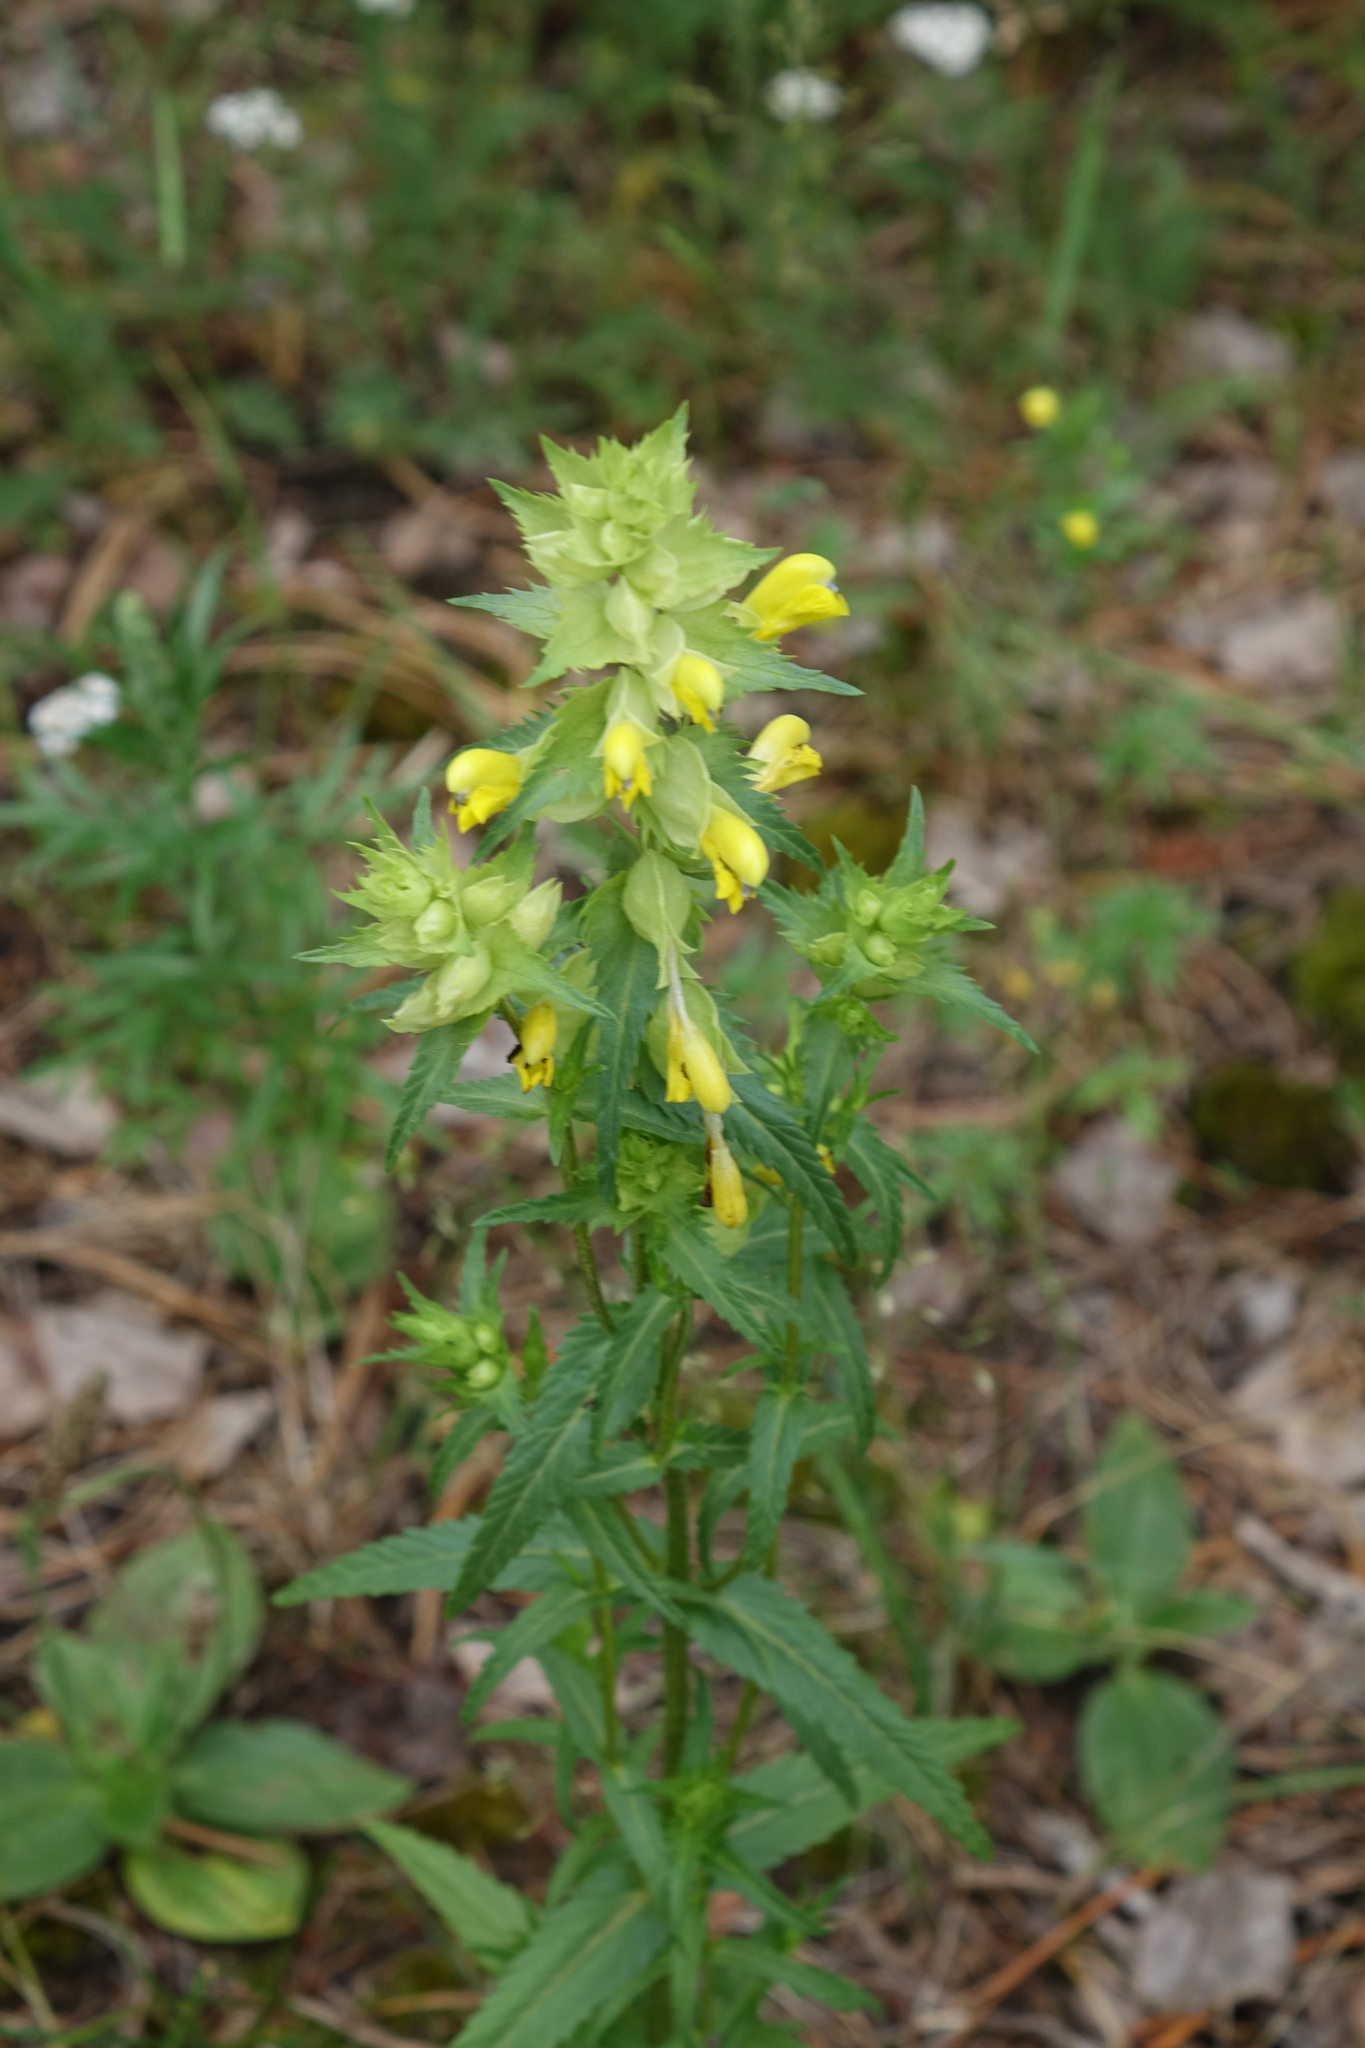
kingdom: Plantae
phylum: Tracheophyta
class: Magnoliopsida
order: Lamiales
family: Orobanchaceae
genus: Rhinanthus
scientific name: Rhinanthus serotinus
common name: Late-flowering yellow rattle
